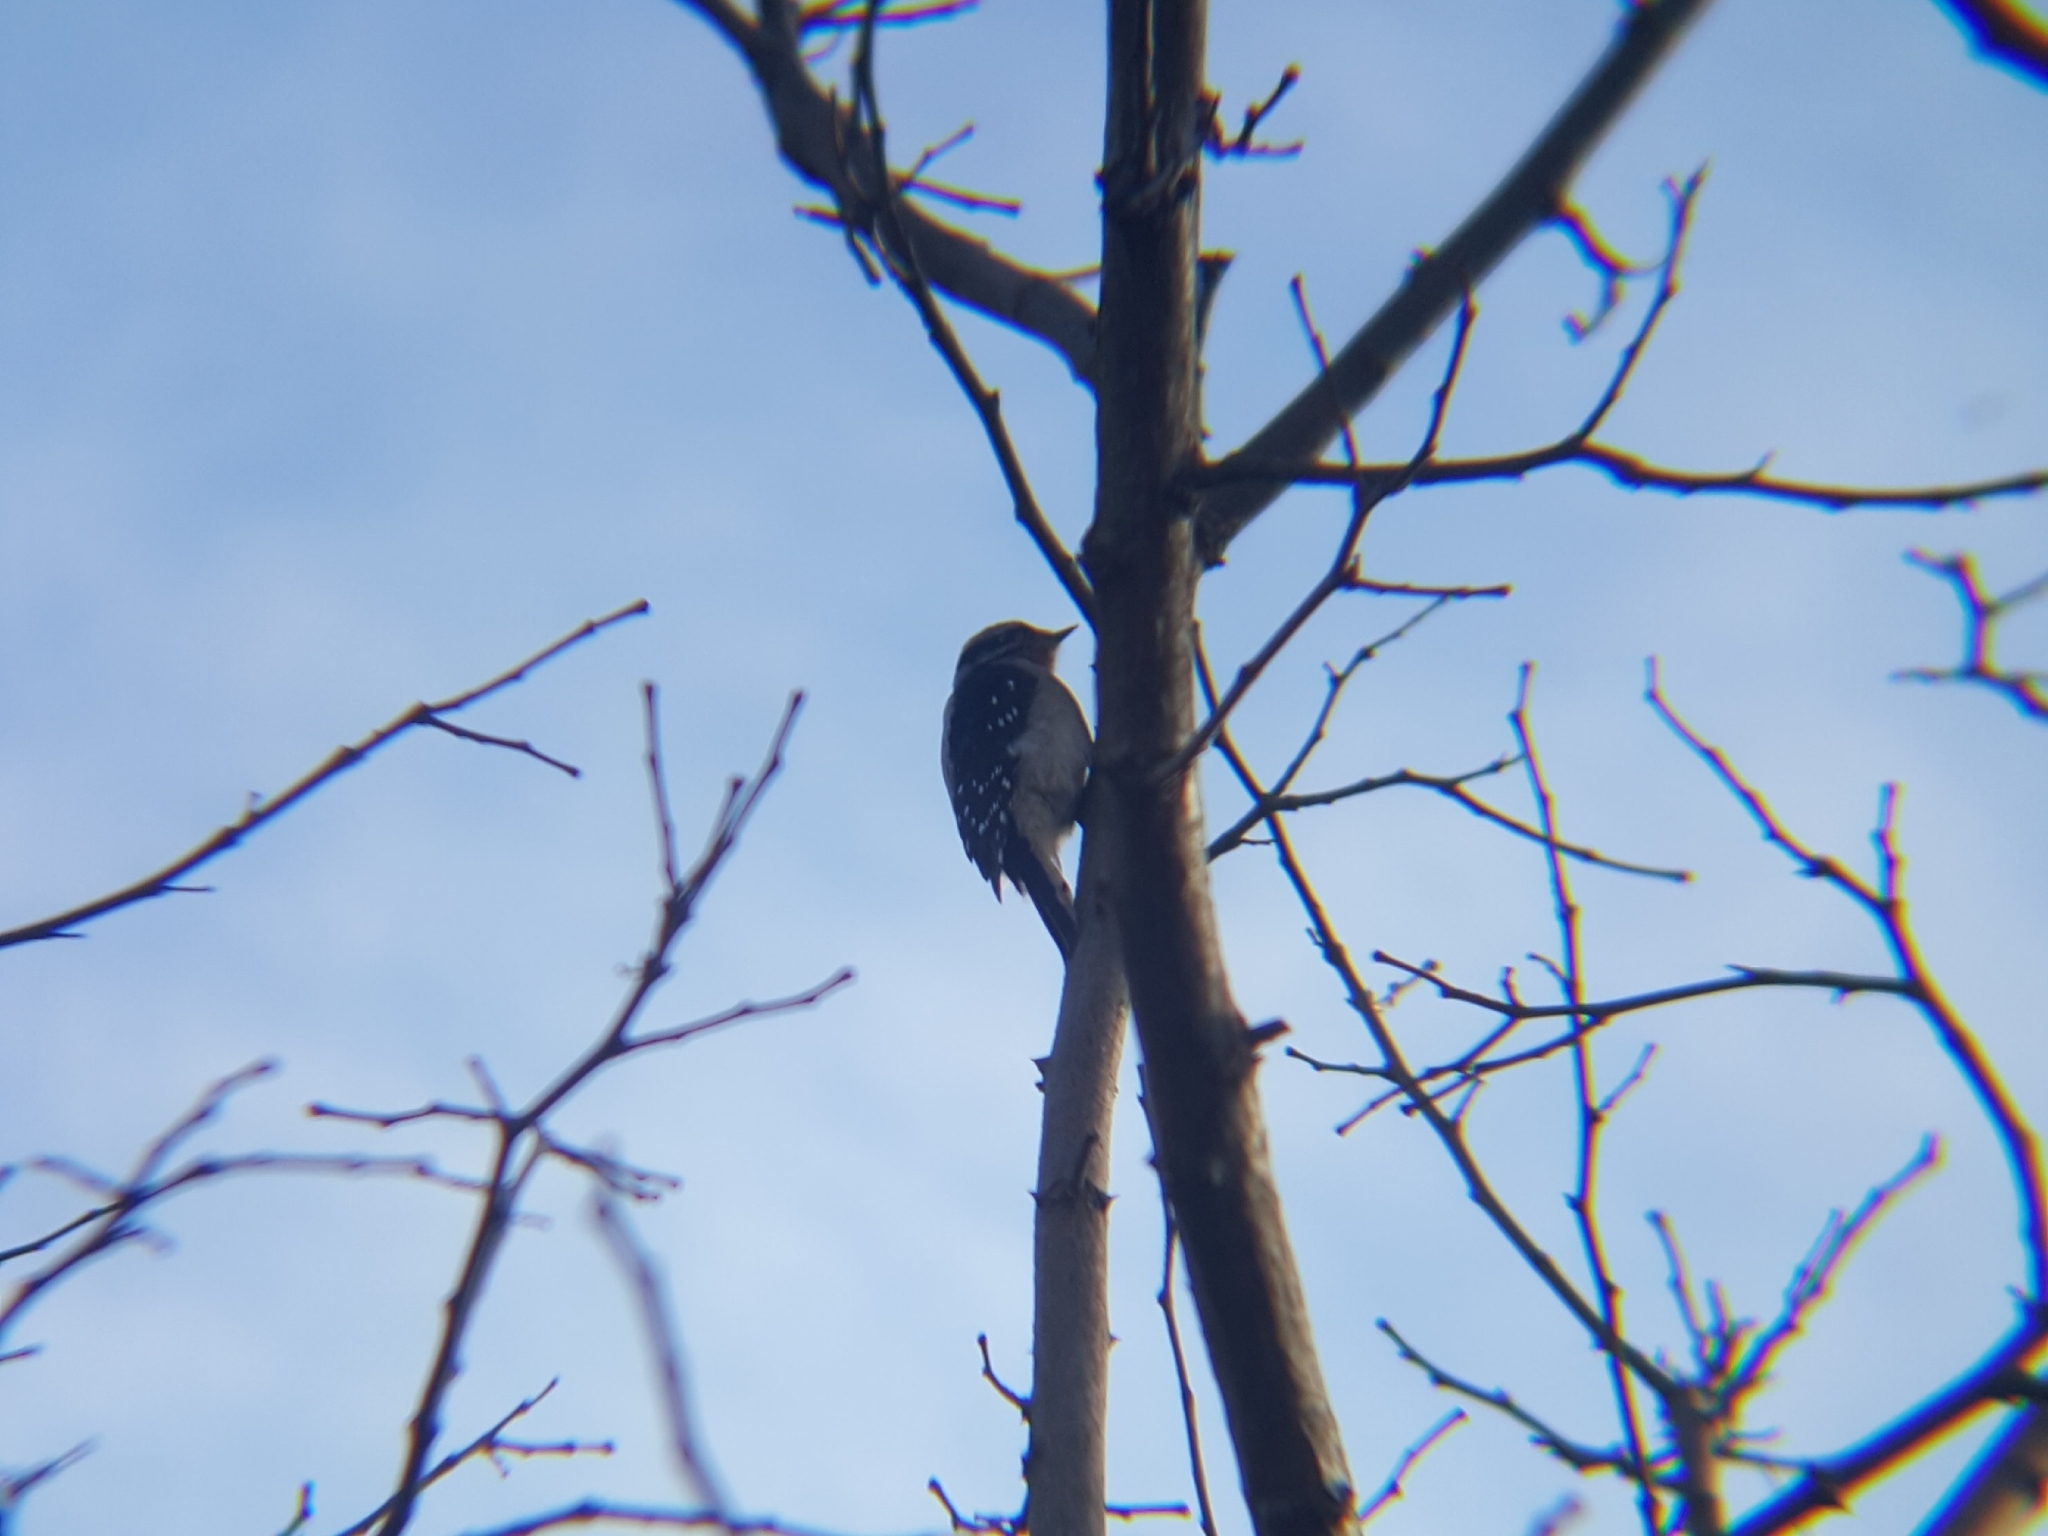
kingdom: Animalia
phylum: Chordata
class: Aves
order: Piciformes
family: Picidae
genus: Dryobates
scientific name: Dryobates pubescens
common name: Downy woodpecker
